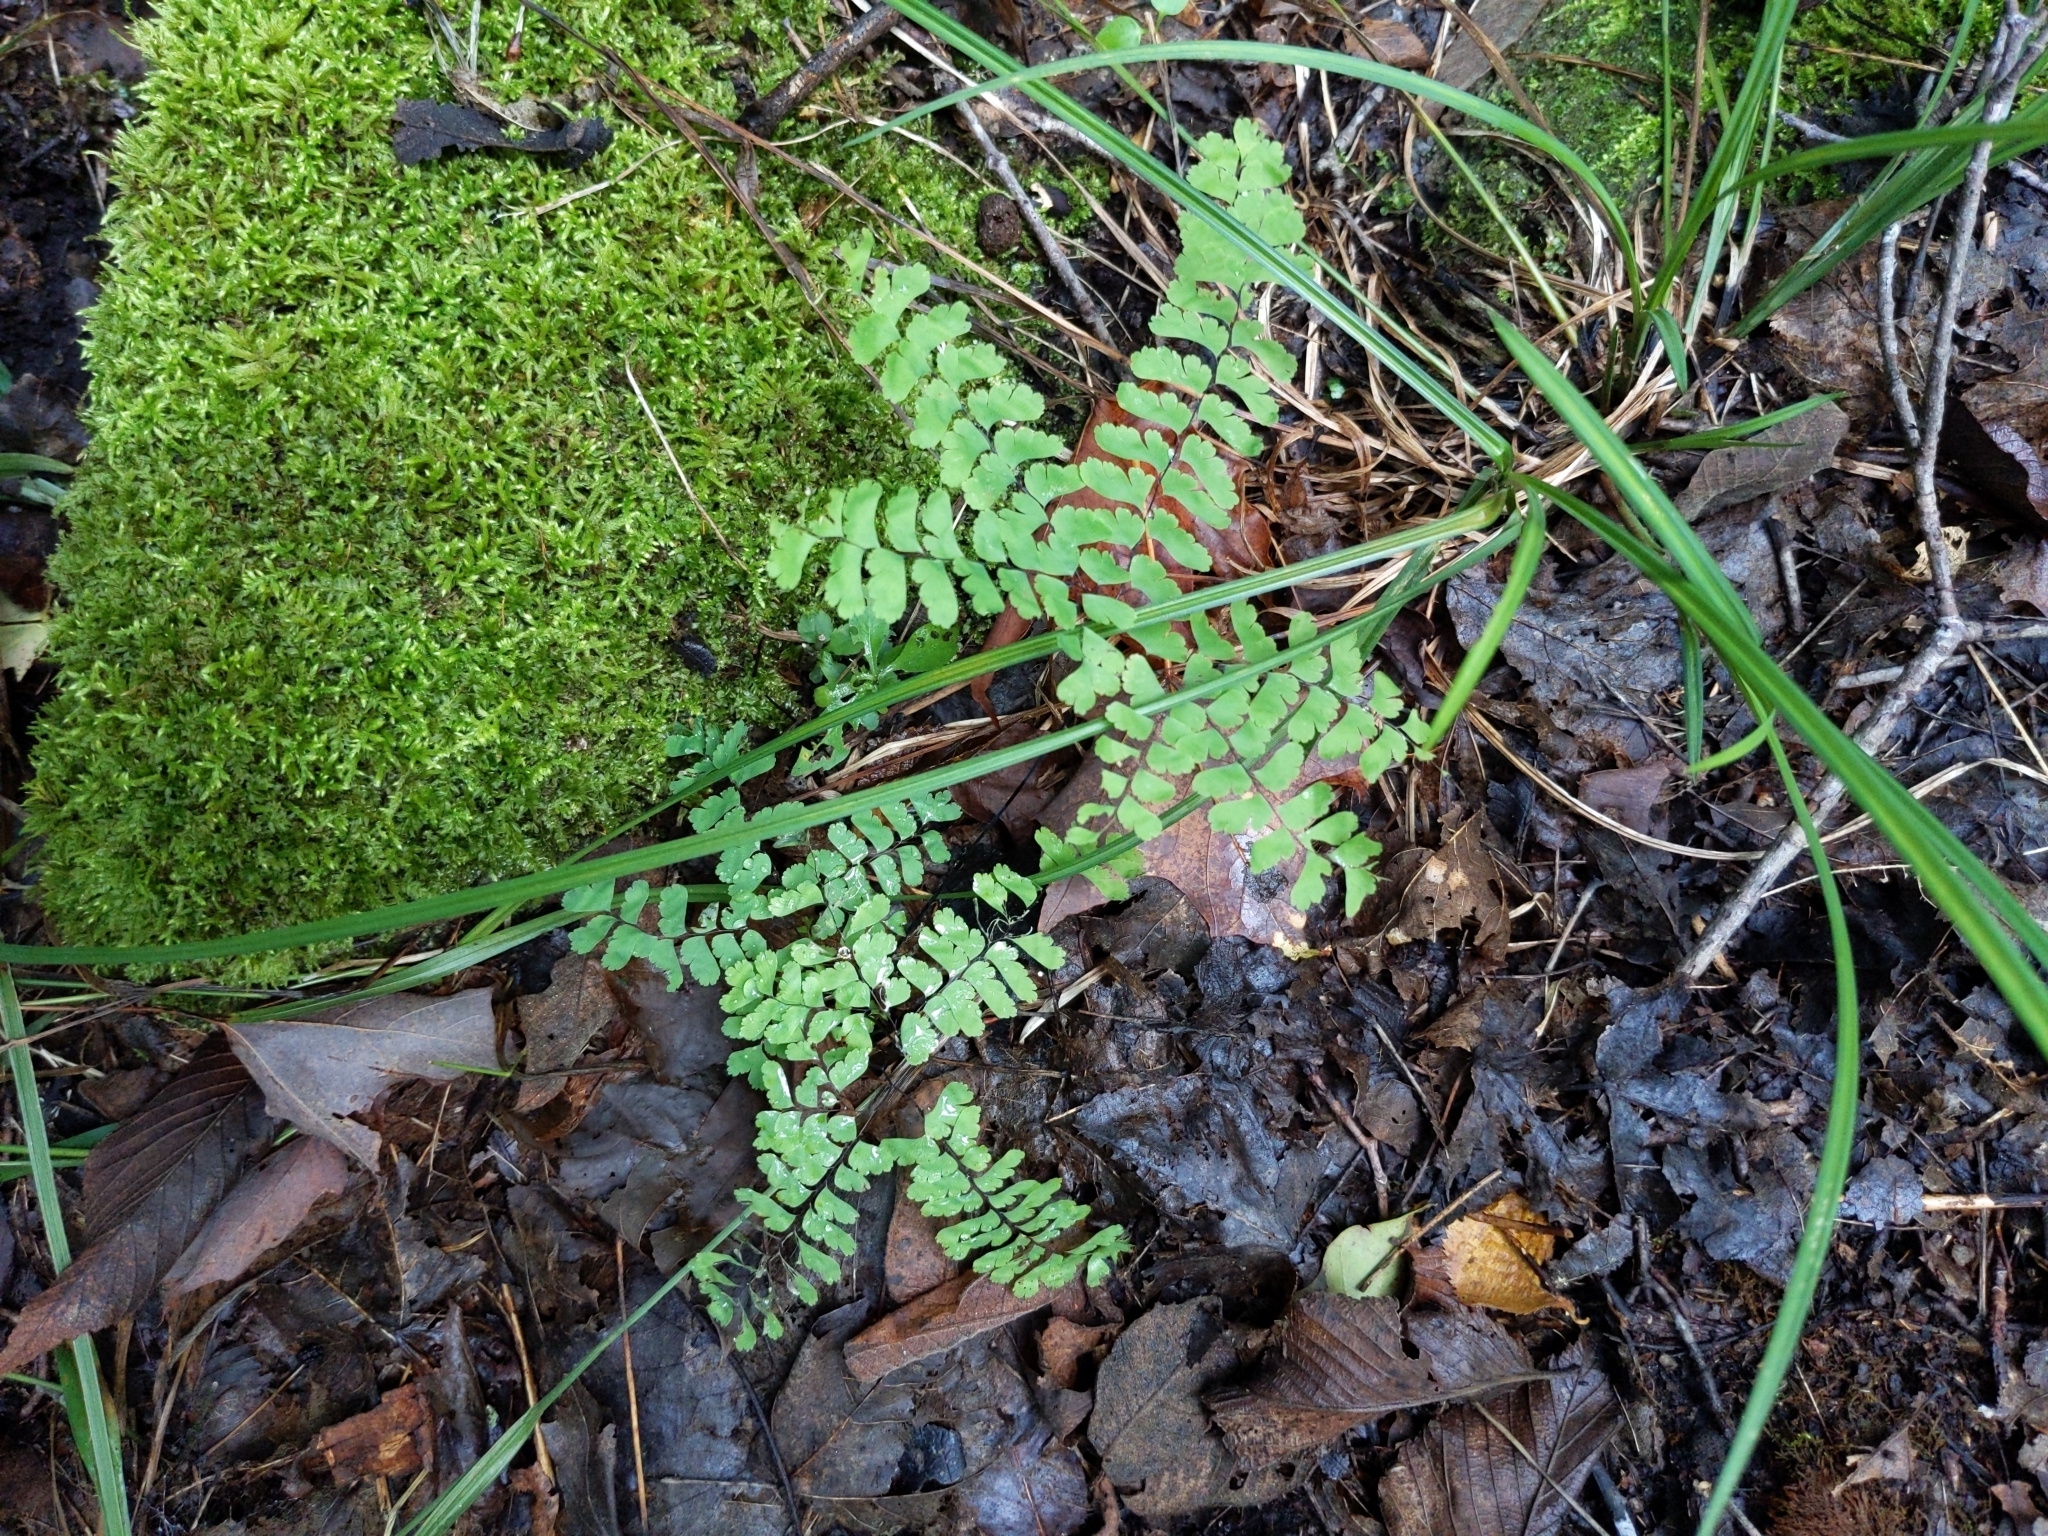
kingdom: Plantae
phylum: Tracheophyta
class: Polypodiopsida
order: Polypodiales
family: Pteridaceae
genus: Adiantum
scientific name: Adiantum pedatum
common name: Five-finger fern
